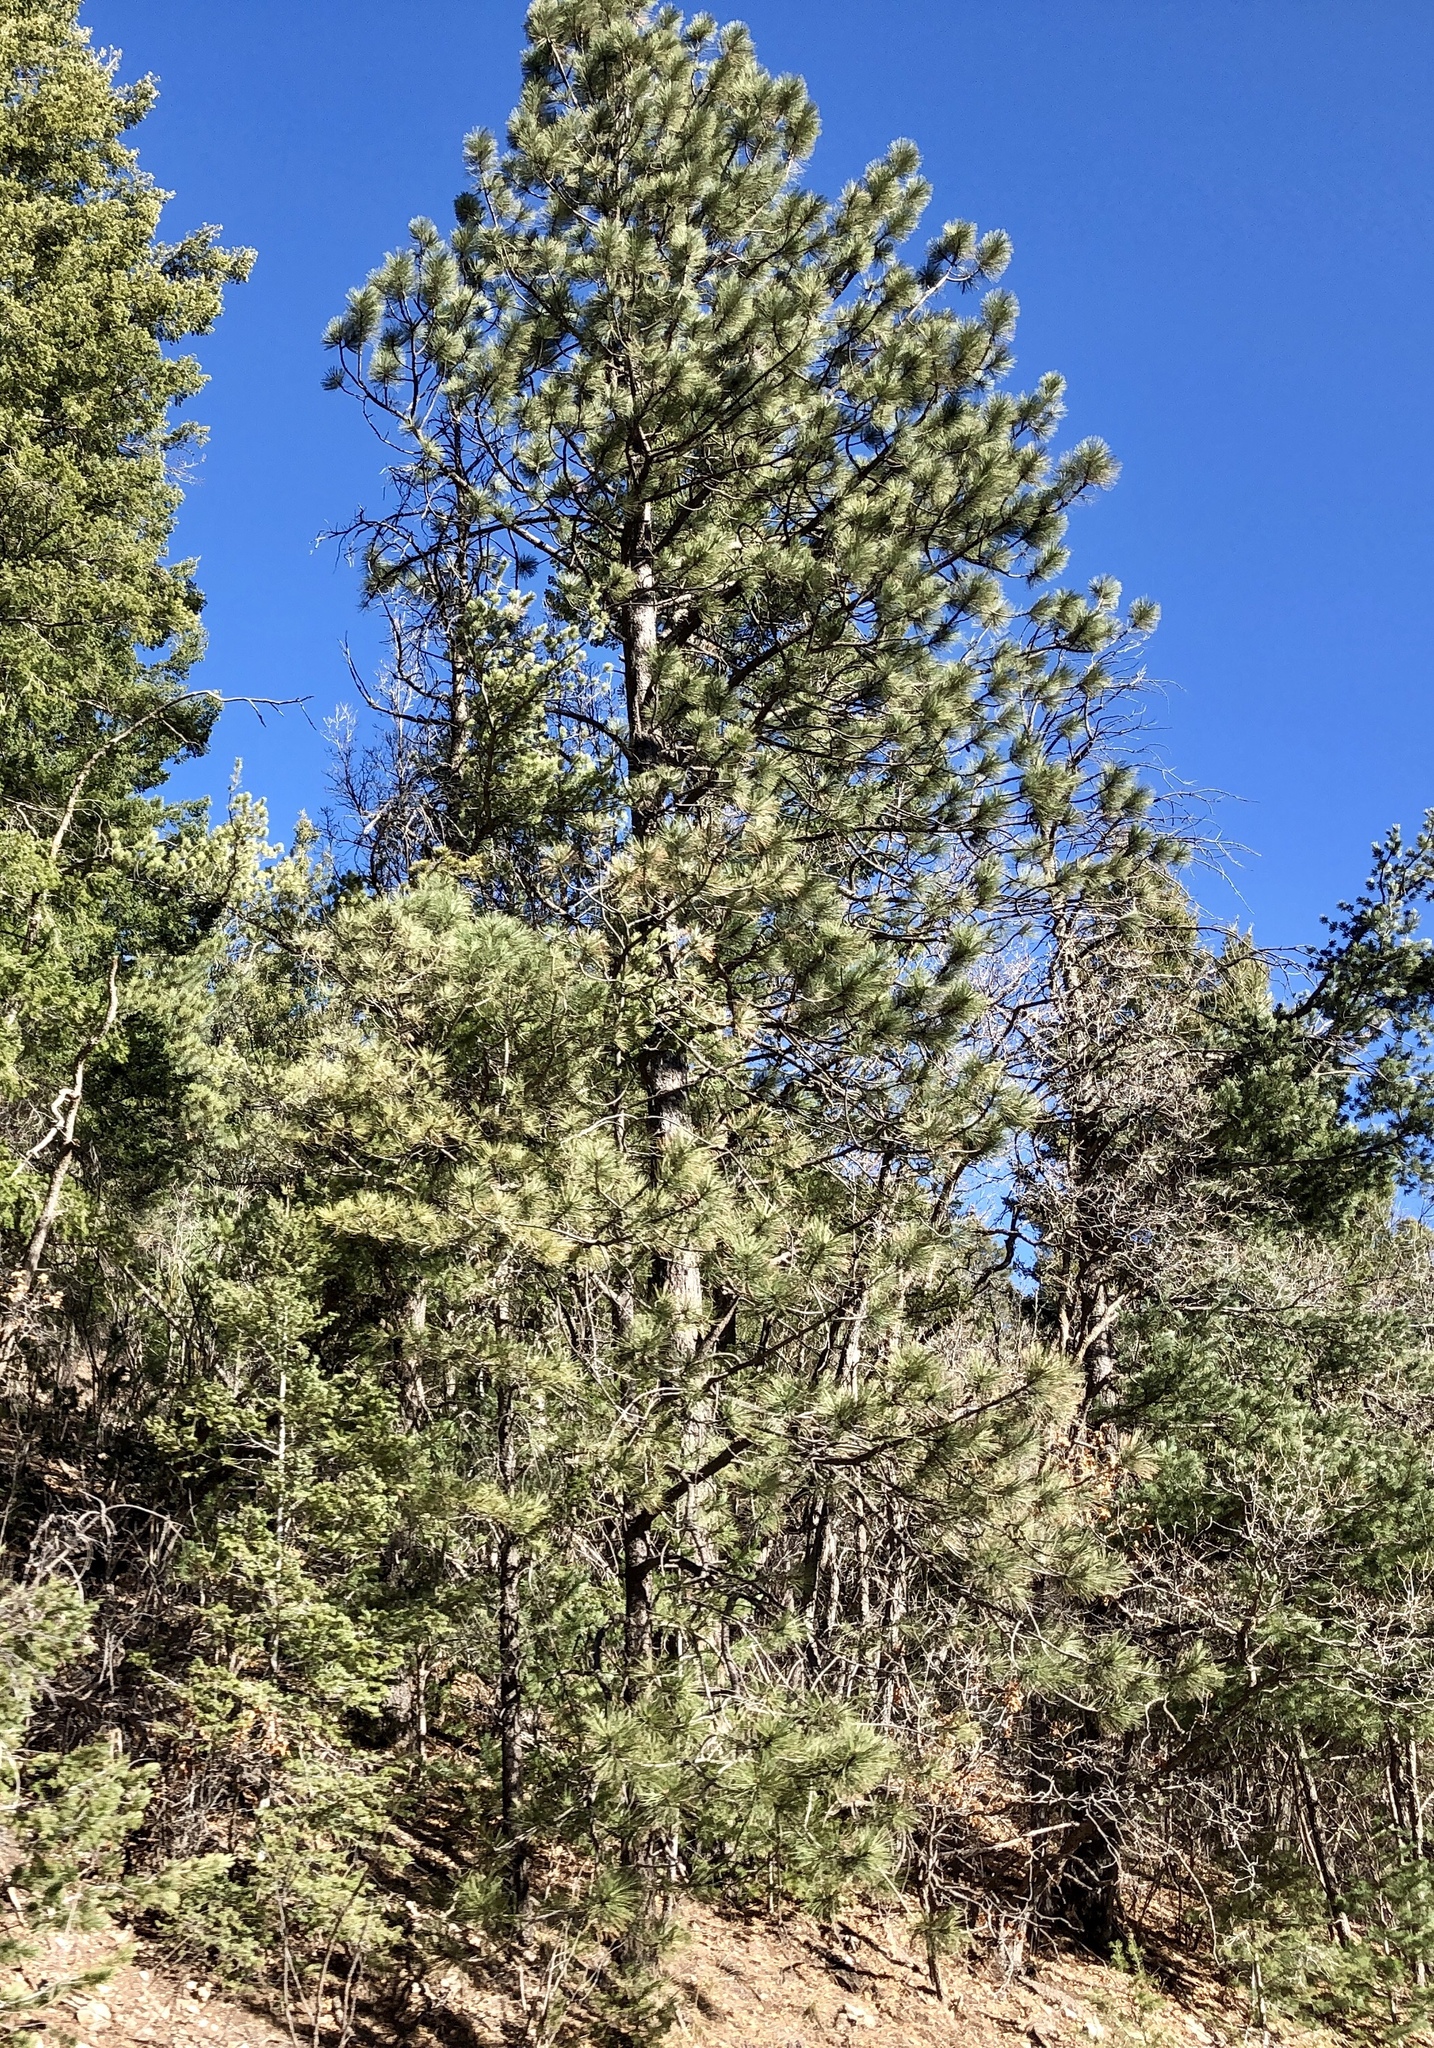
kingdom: Plantae
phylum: Tracheophyta
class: Pinopsida
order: Pinales
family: Pinaceae
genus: Pinus
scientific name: Pinus ponderosa
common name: Western yellow-pine
